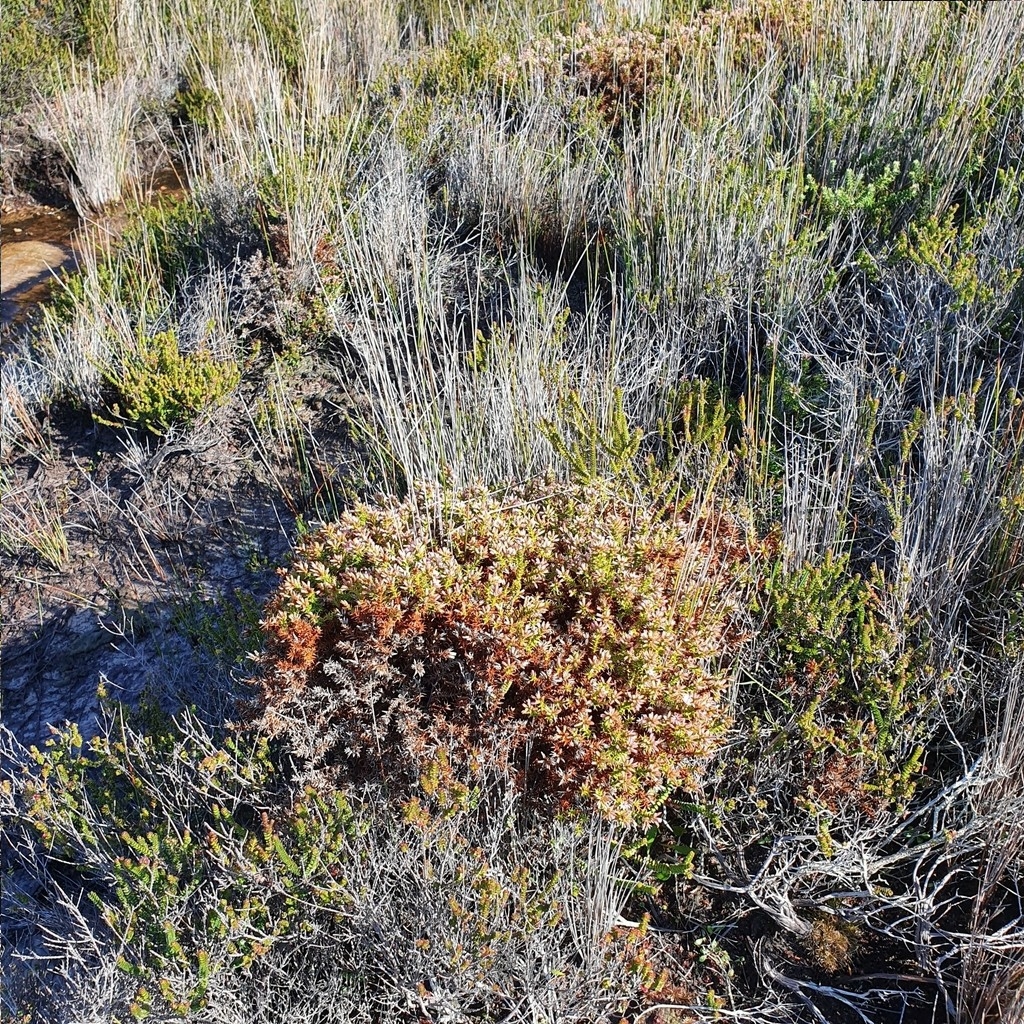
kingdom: Plantae
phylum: Tracheophyta
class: Magnoliopsida
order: Ericales
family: Ericaceae
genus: Sprengelia
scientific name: Sprengelia incarnata
